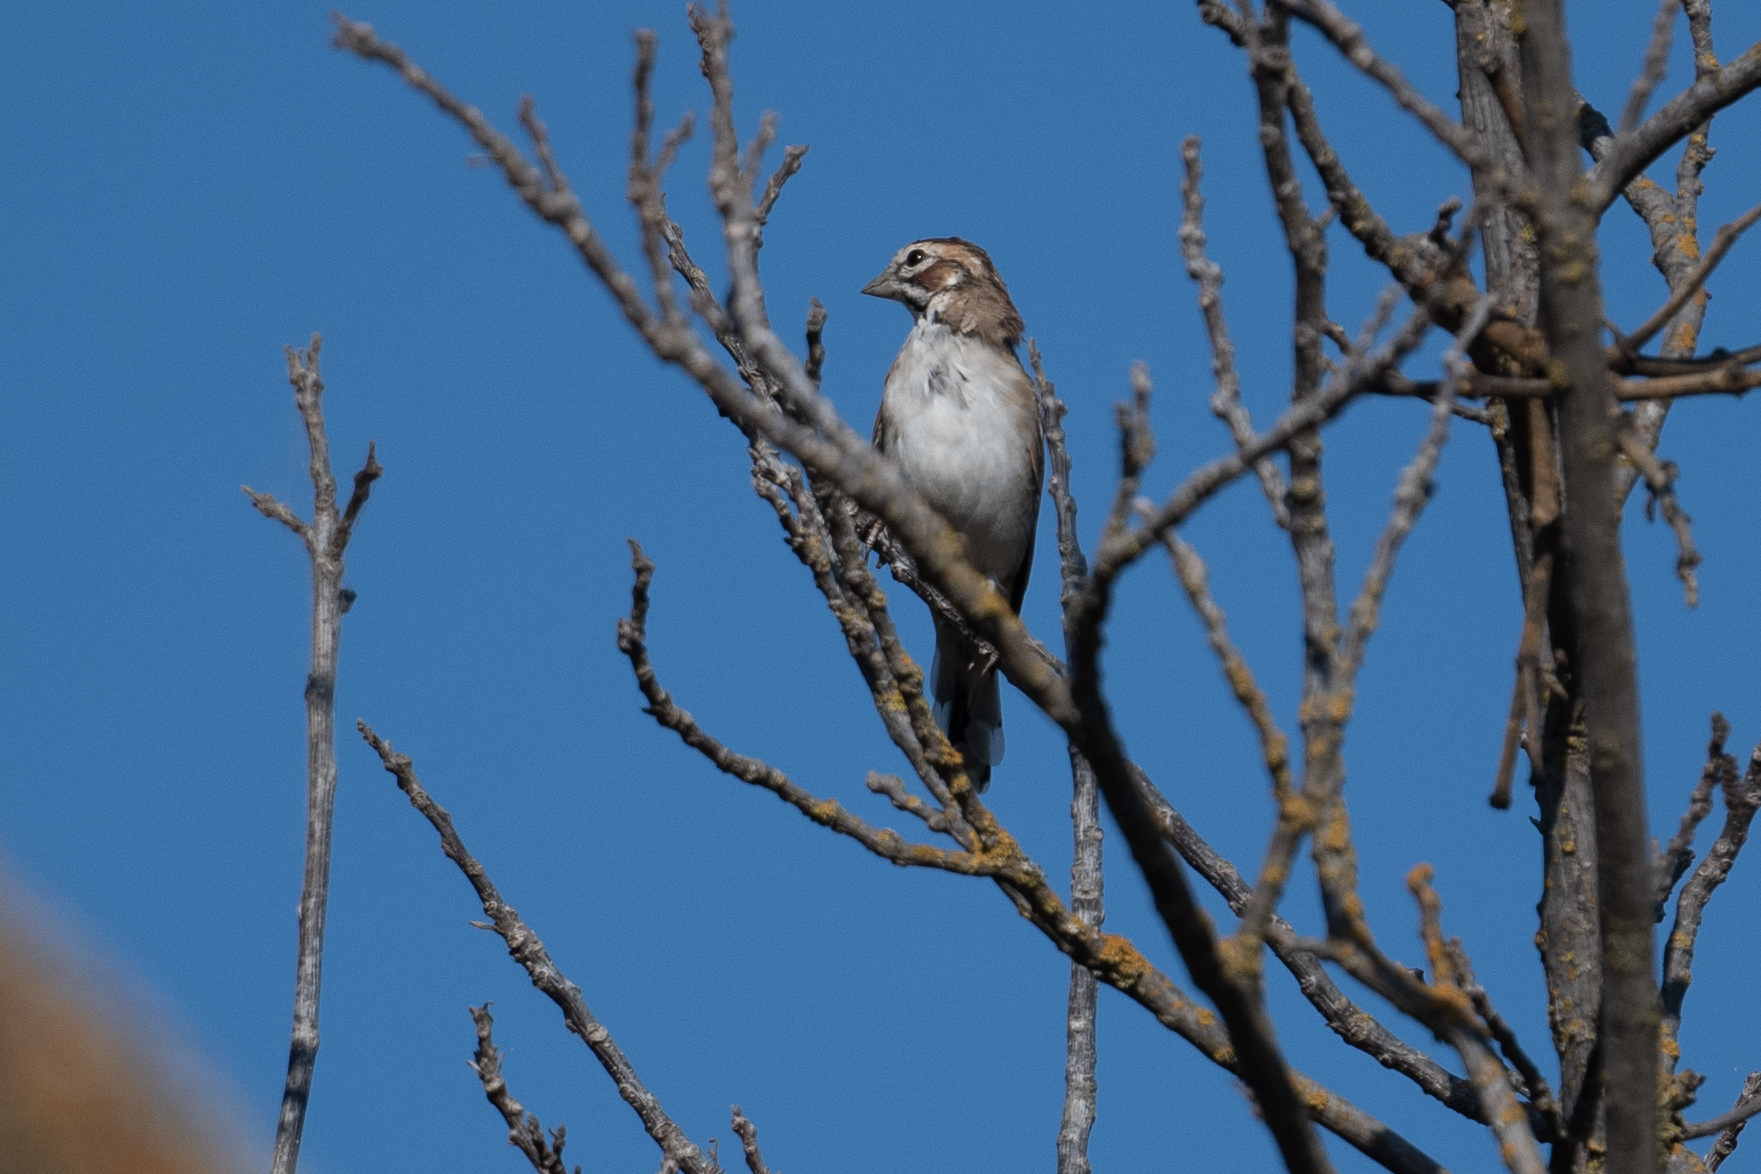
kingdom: Animalia
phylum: Chordata
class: Aves
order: Passeriformes
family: Passerellidae
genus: Chondestes
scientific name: Chondestes grammacus
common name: Lark sparrow
